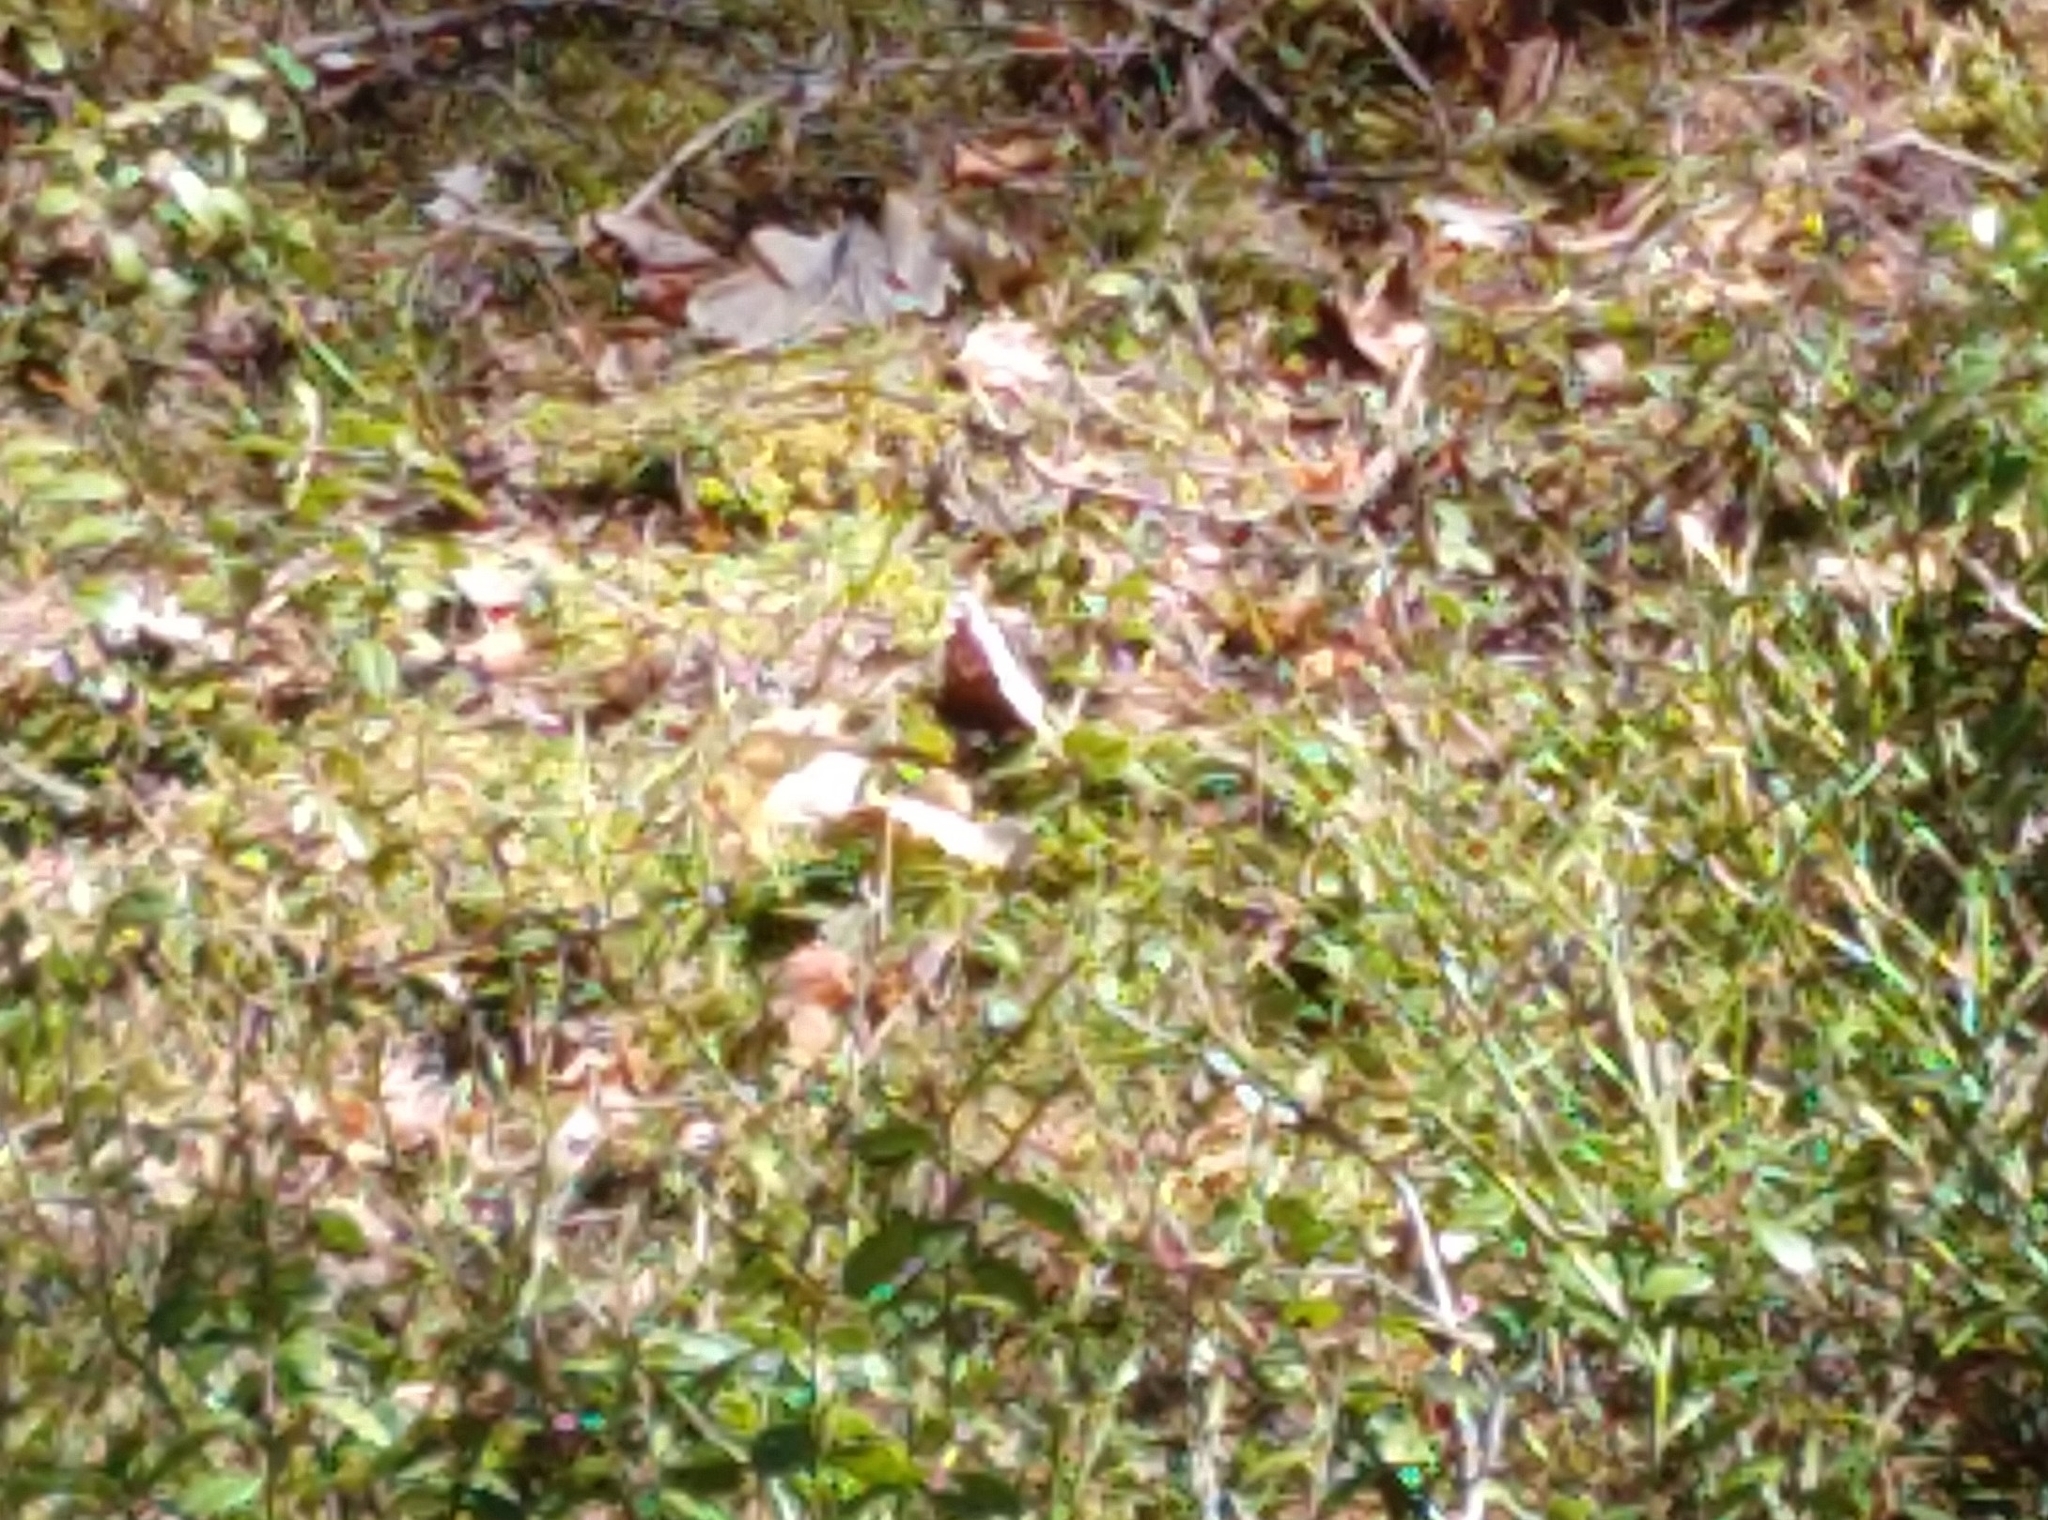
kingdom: Animalia
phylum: Arthropoda
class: Insecta
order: Lepidoptera
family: Nymphalidae
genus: Nymphalis
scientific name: Nymphalis antiopa
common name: Camberwell beauty
